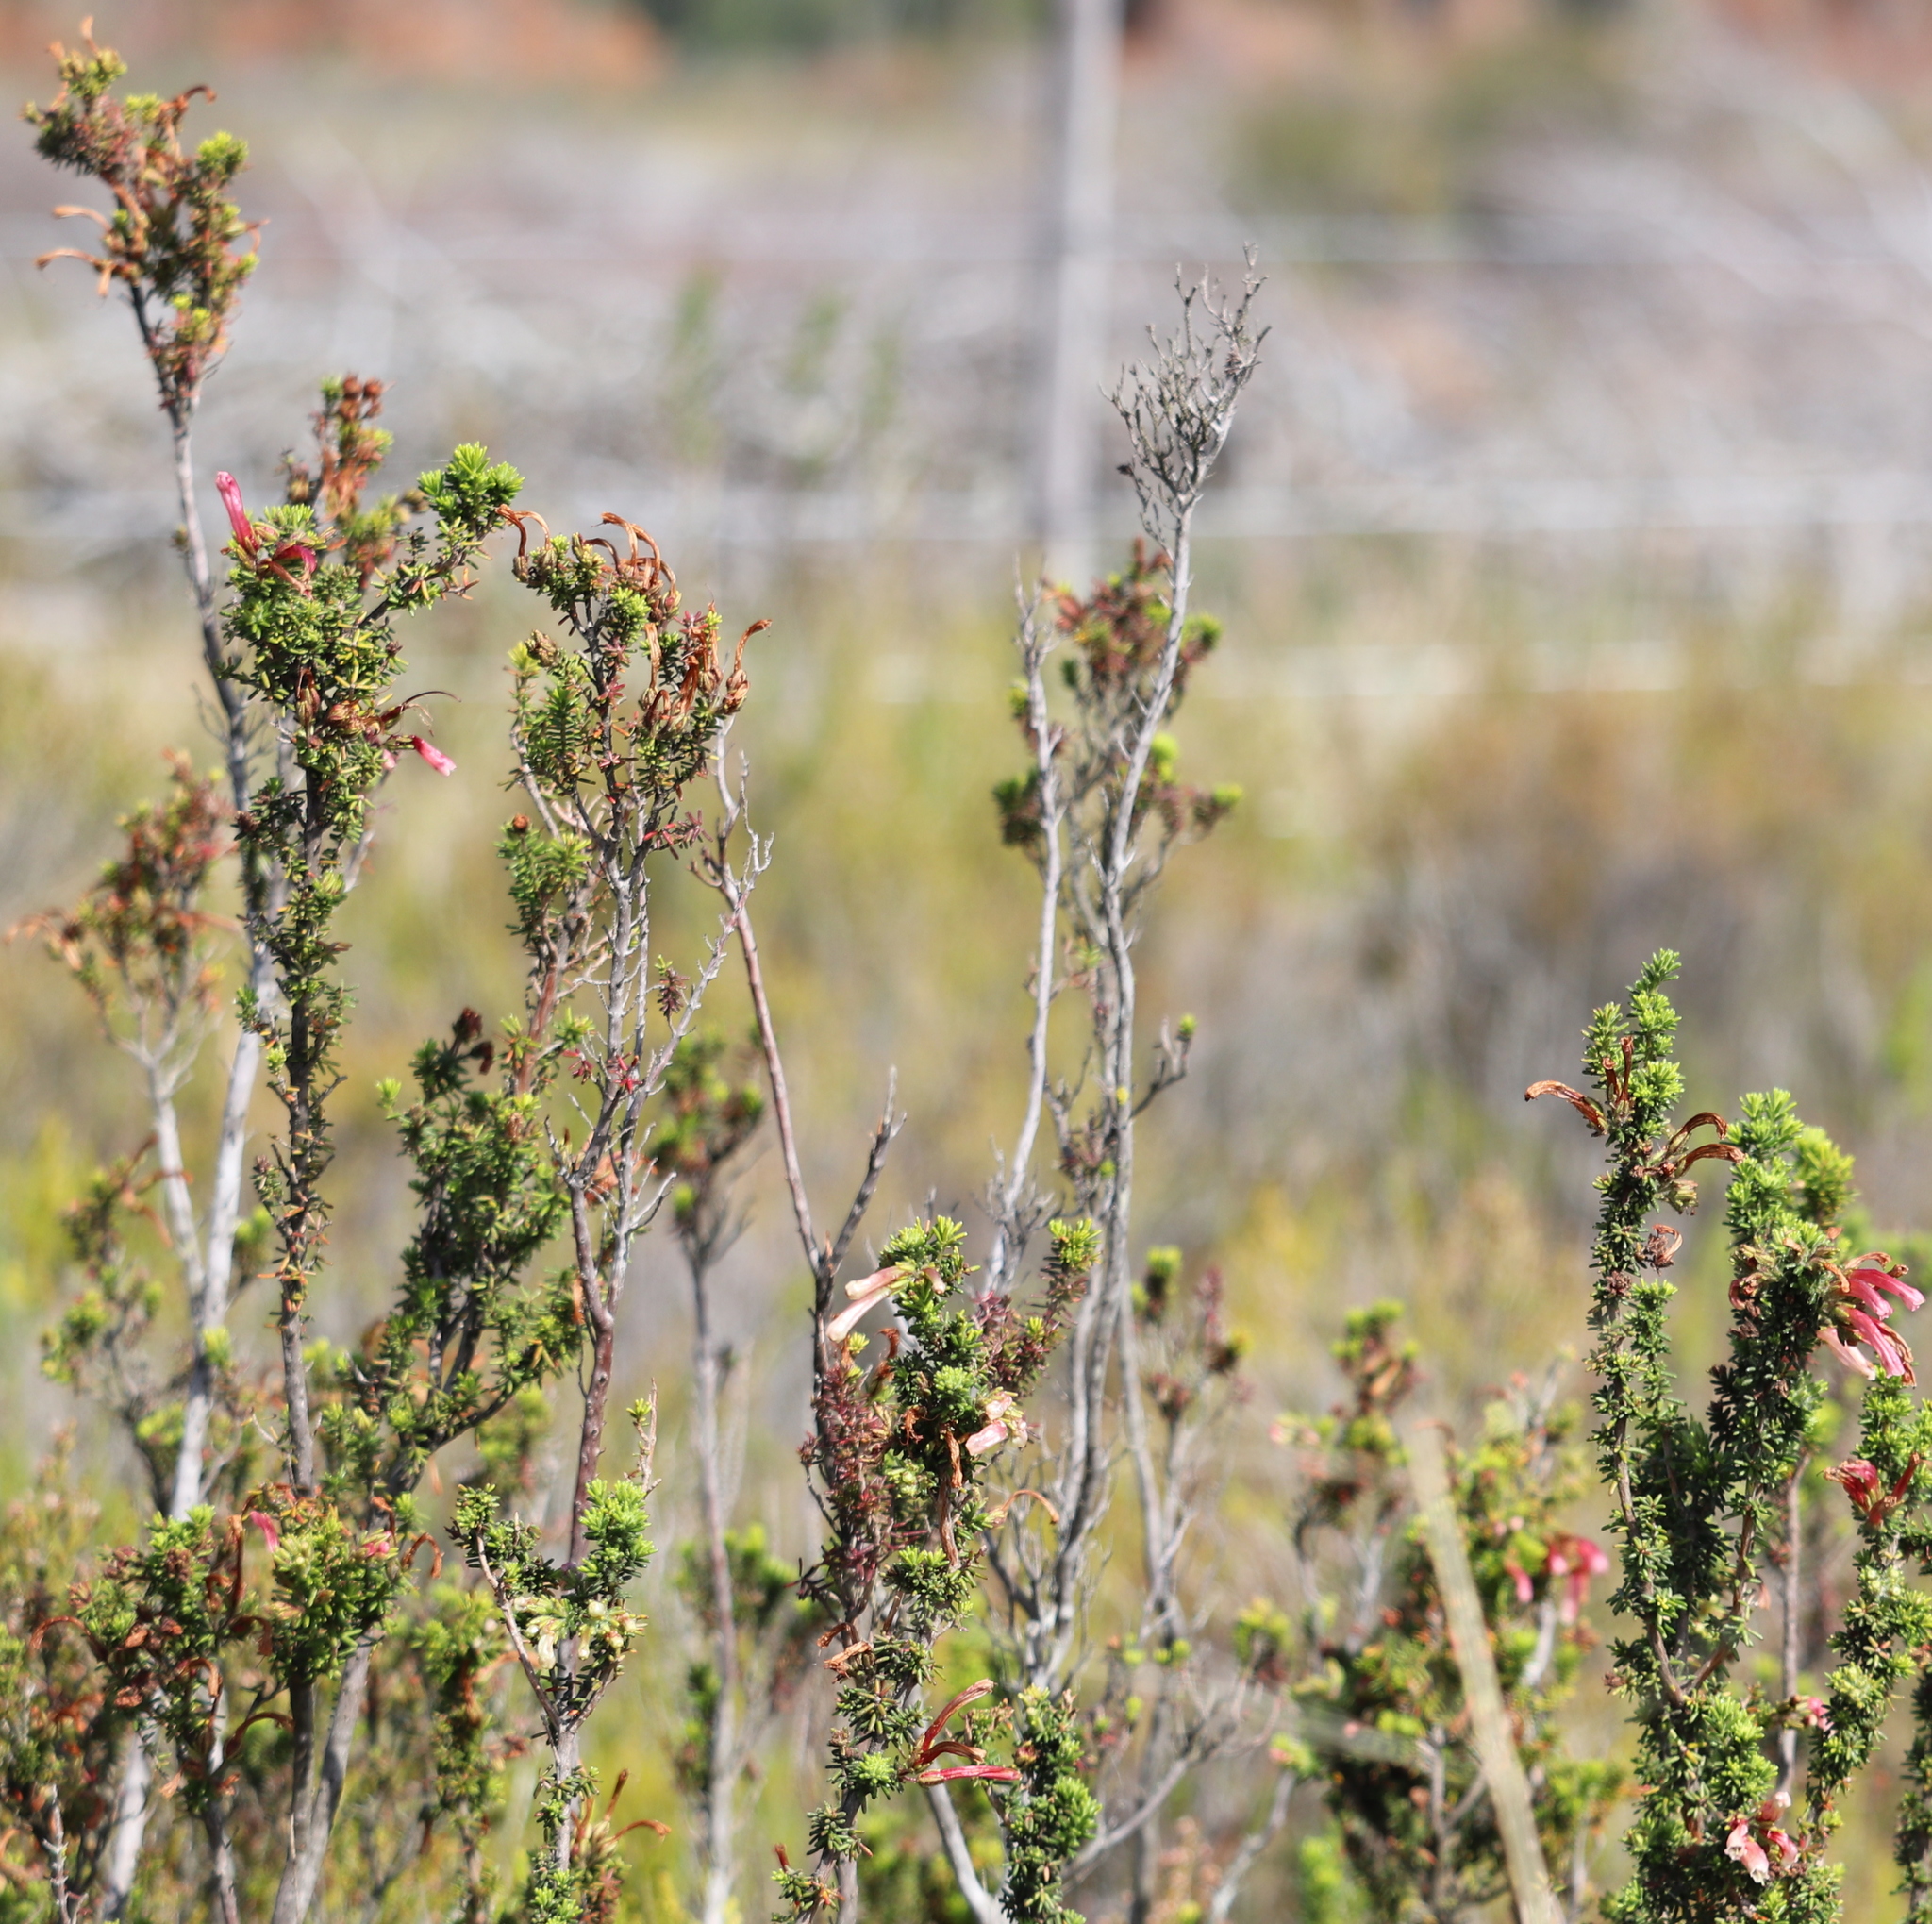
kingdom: Plantae
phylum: Tracheophyta
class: Magnoliopsida
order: Ericales
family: Ericaceae
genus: Erica
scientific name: Erica glandulosa
